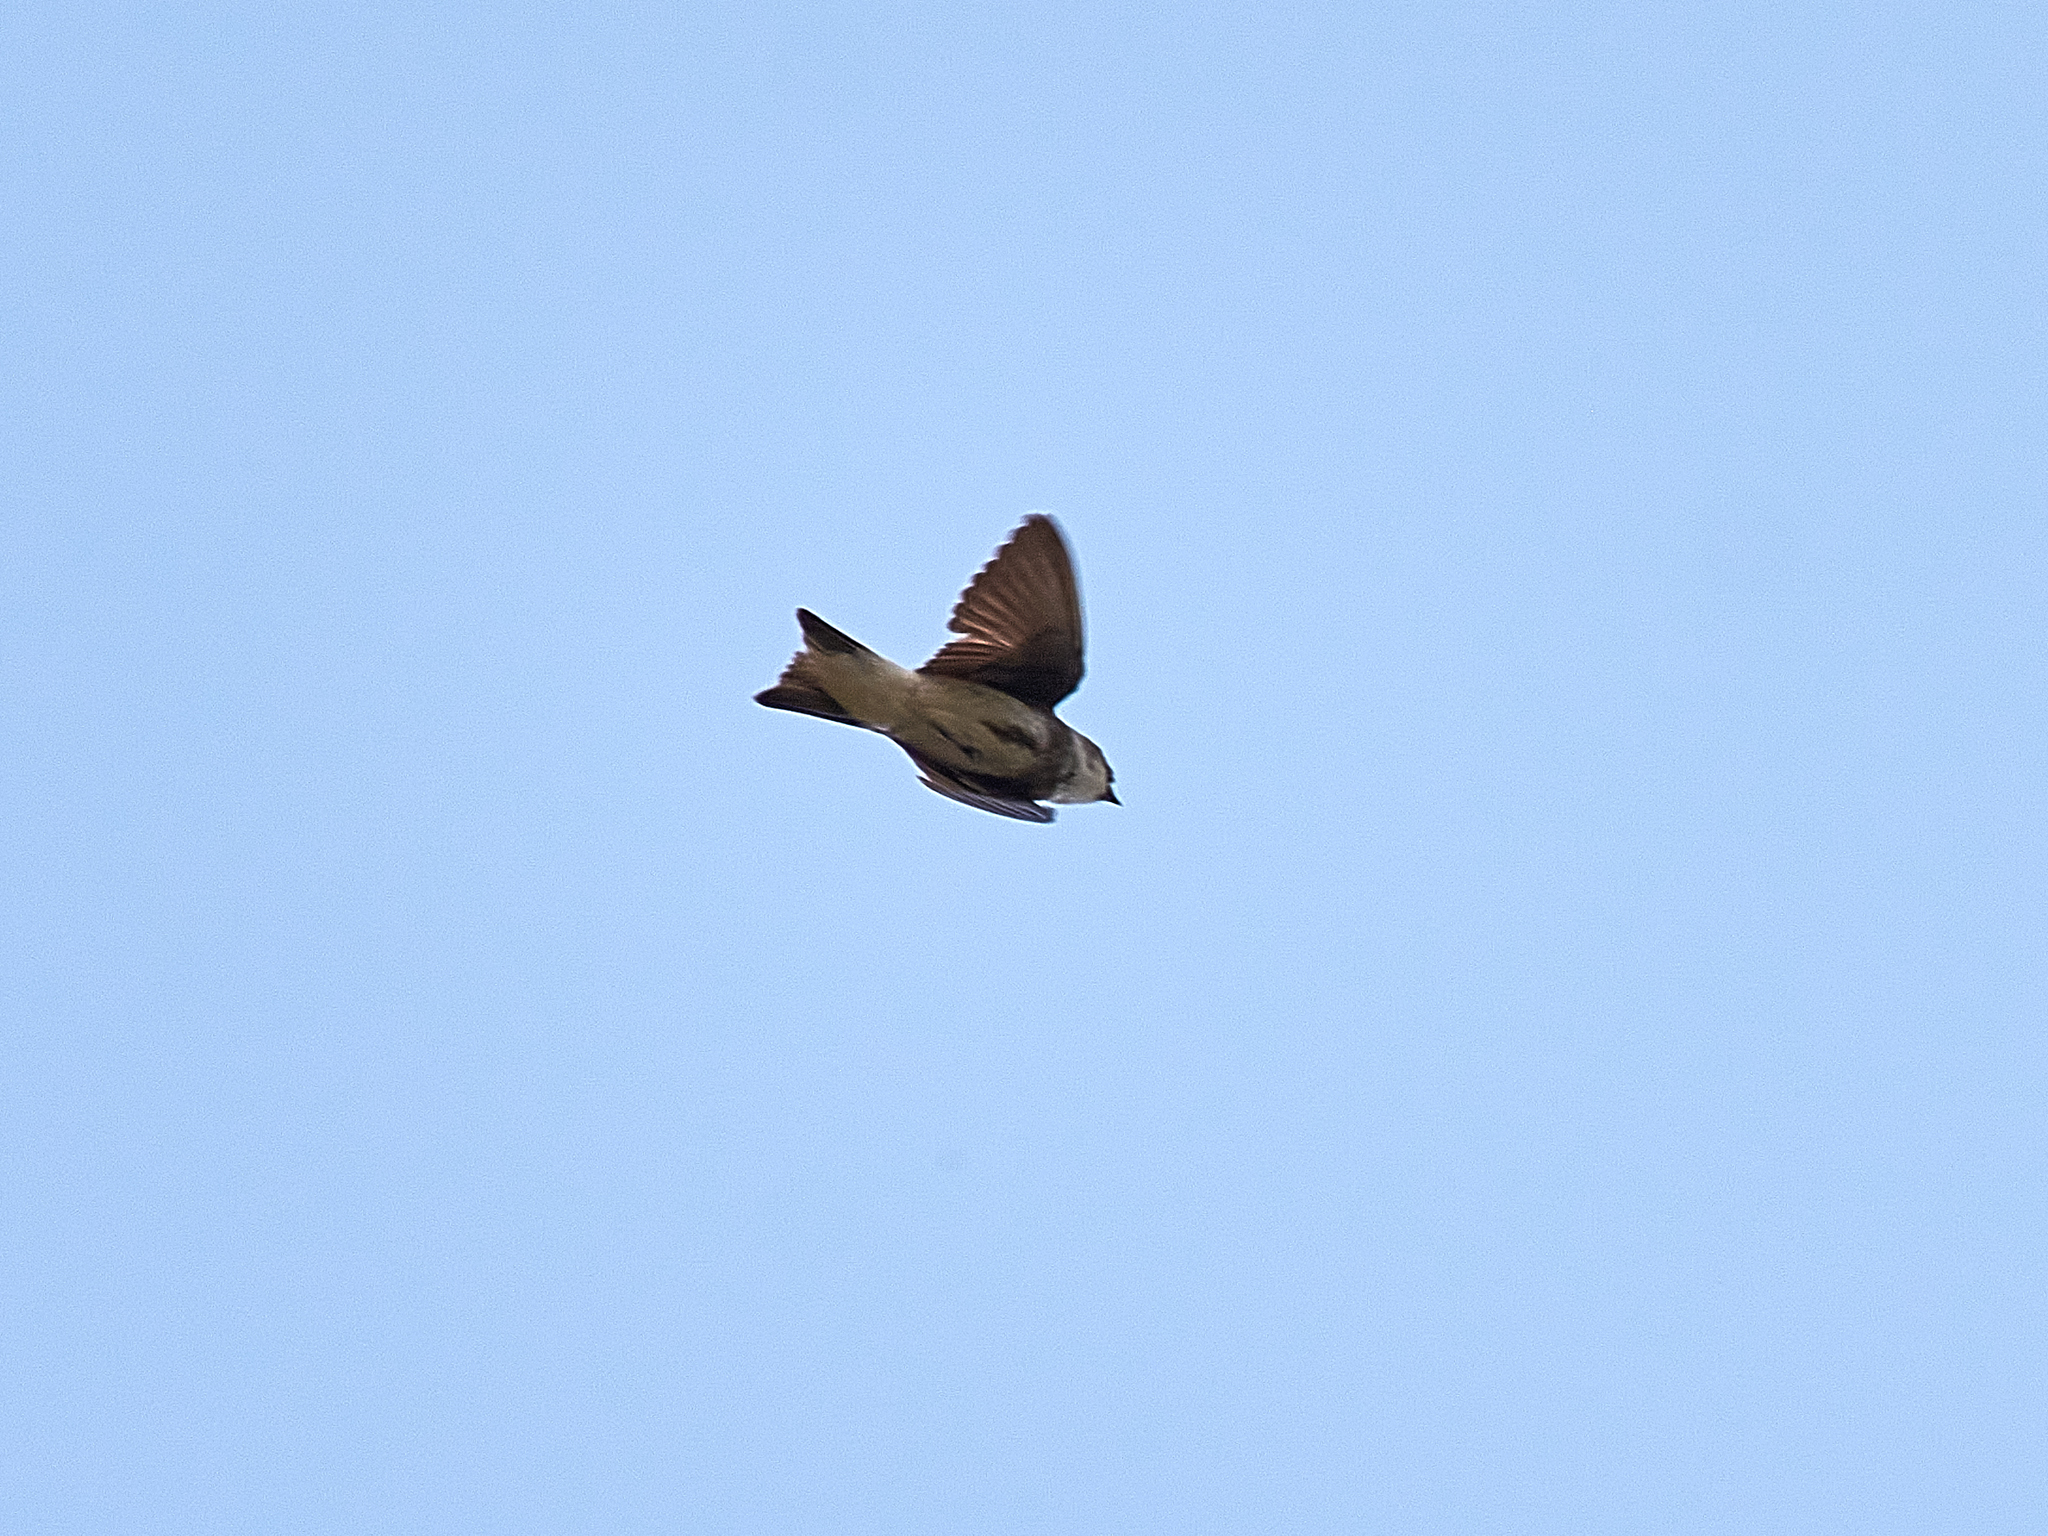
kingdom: Animalia
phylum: Chordata
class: Aves
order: Passeriformes
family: Hirundinidae
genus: Riparia
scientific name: Riparia riparia
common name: Sand martin
